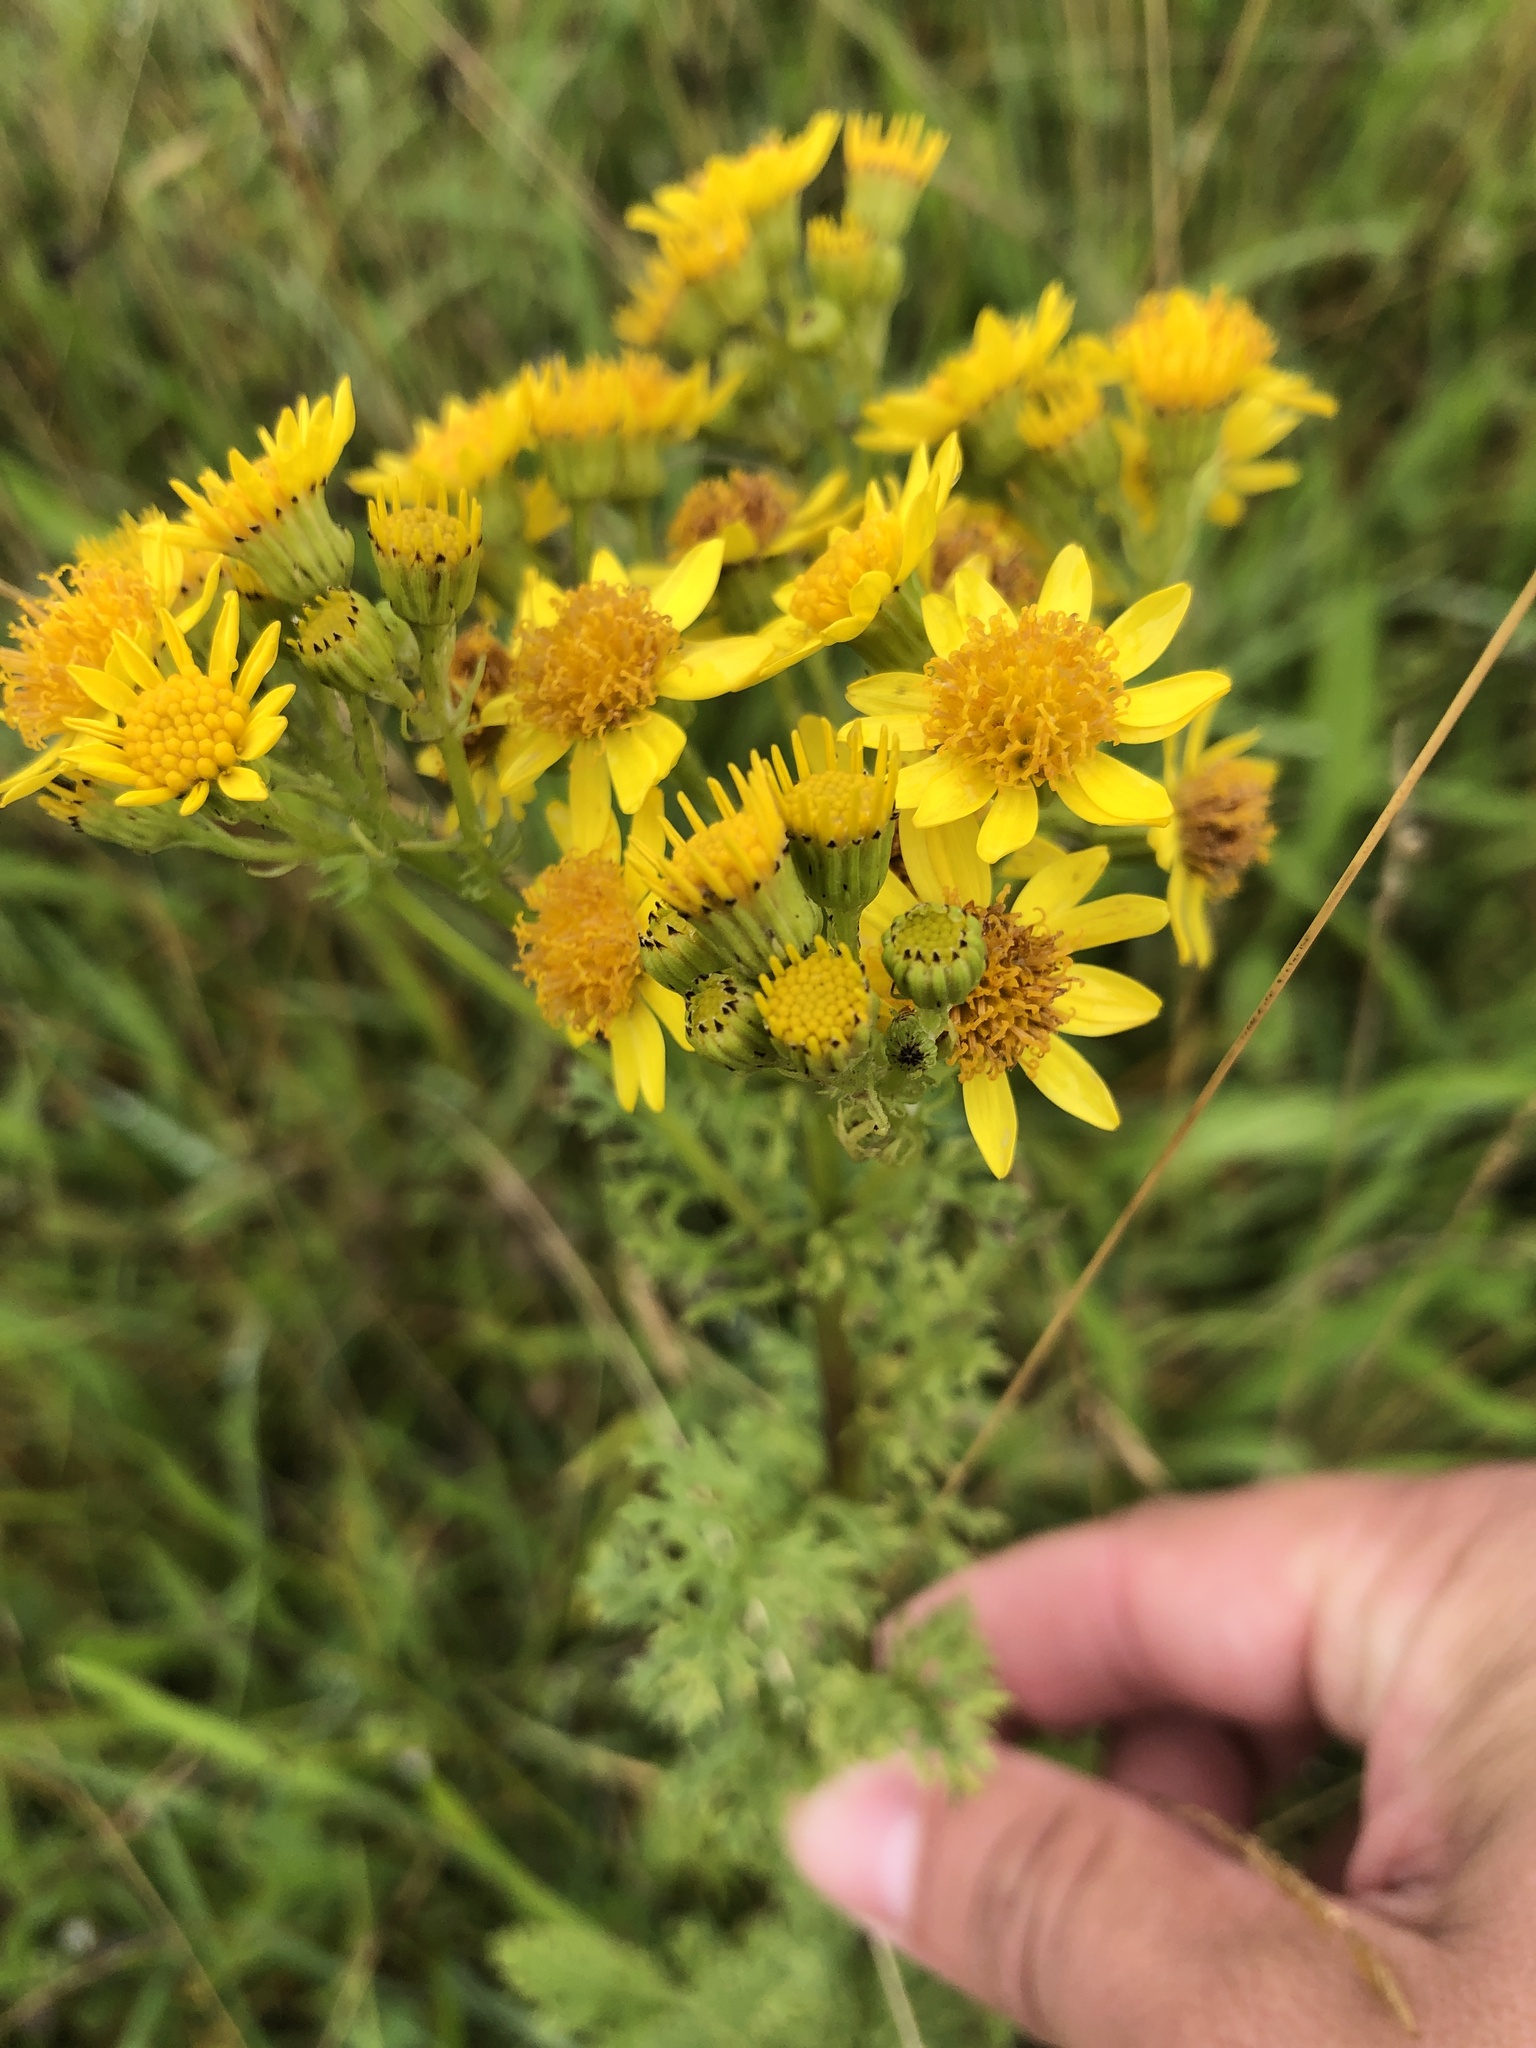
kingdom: Plantae
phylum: Tracheophyta
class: Magnoliopsida
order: Asterales
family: Asteraceae
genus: Jacobaea
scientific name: Jacobaea vulgaris
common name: Stinking willie
